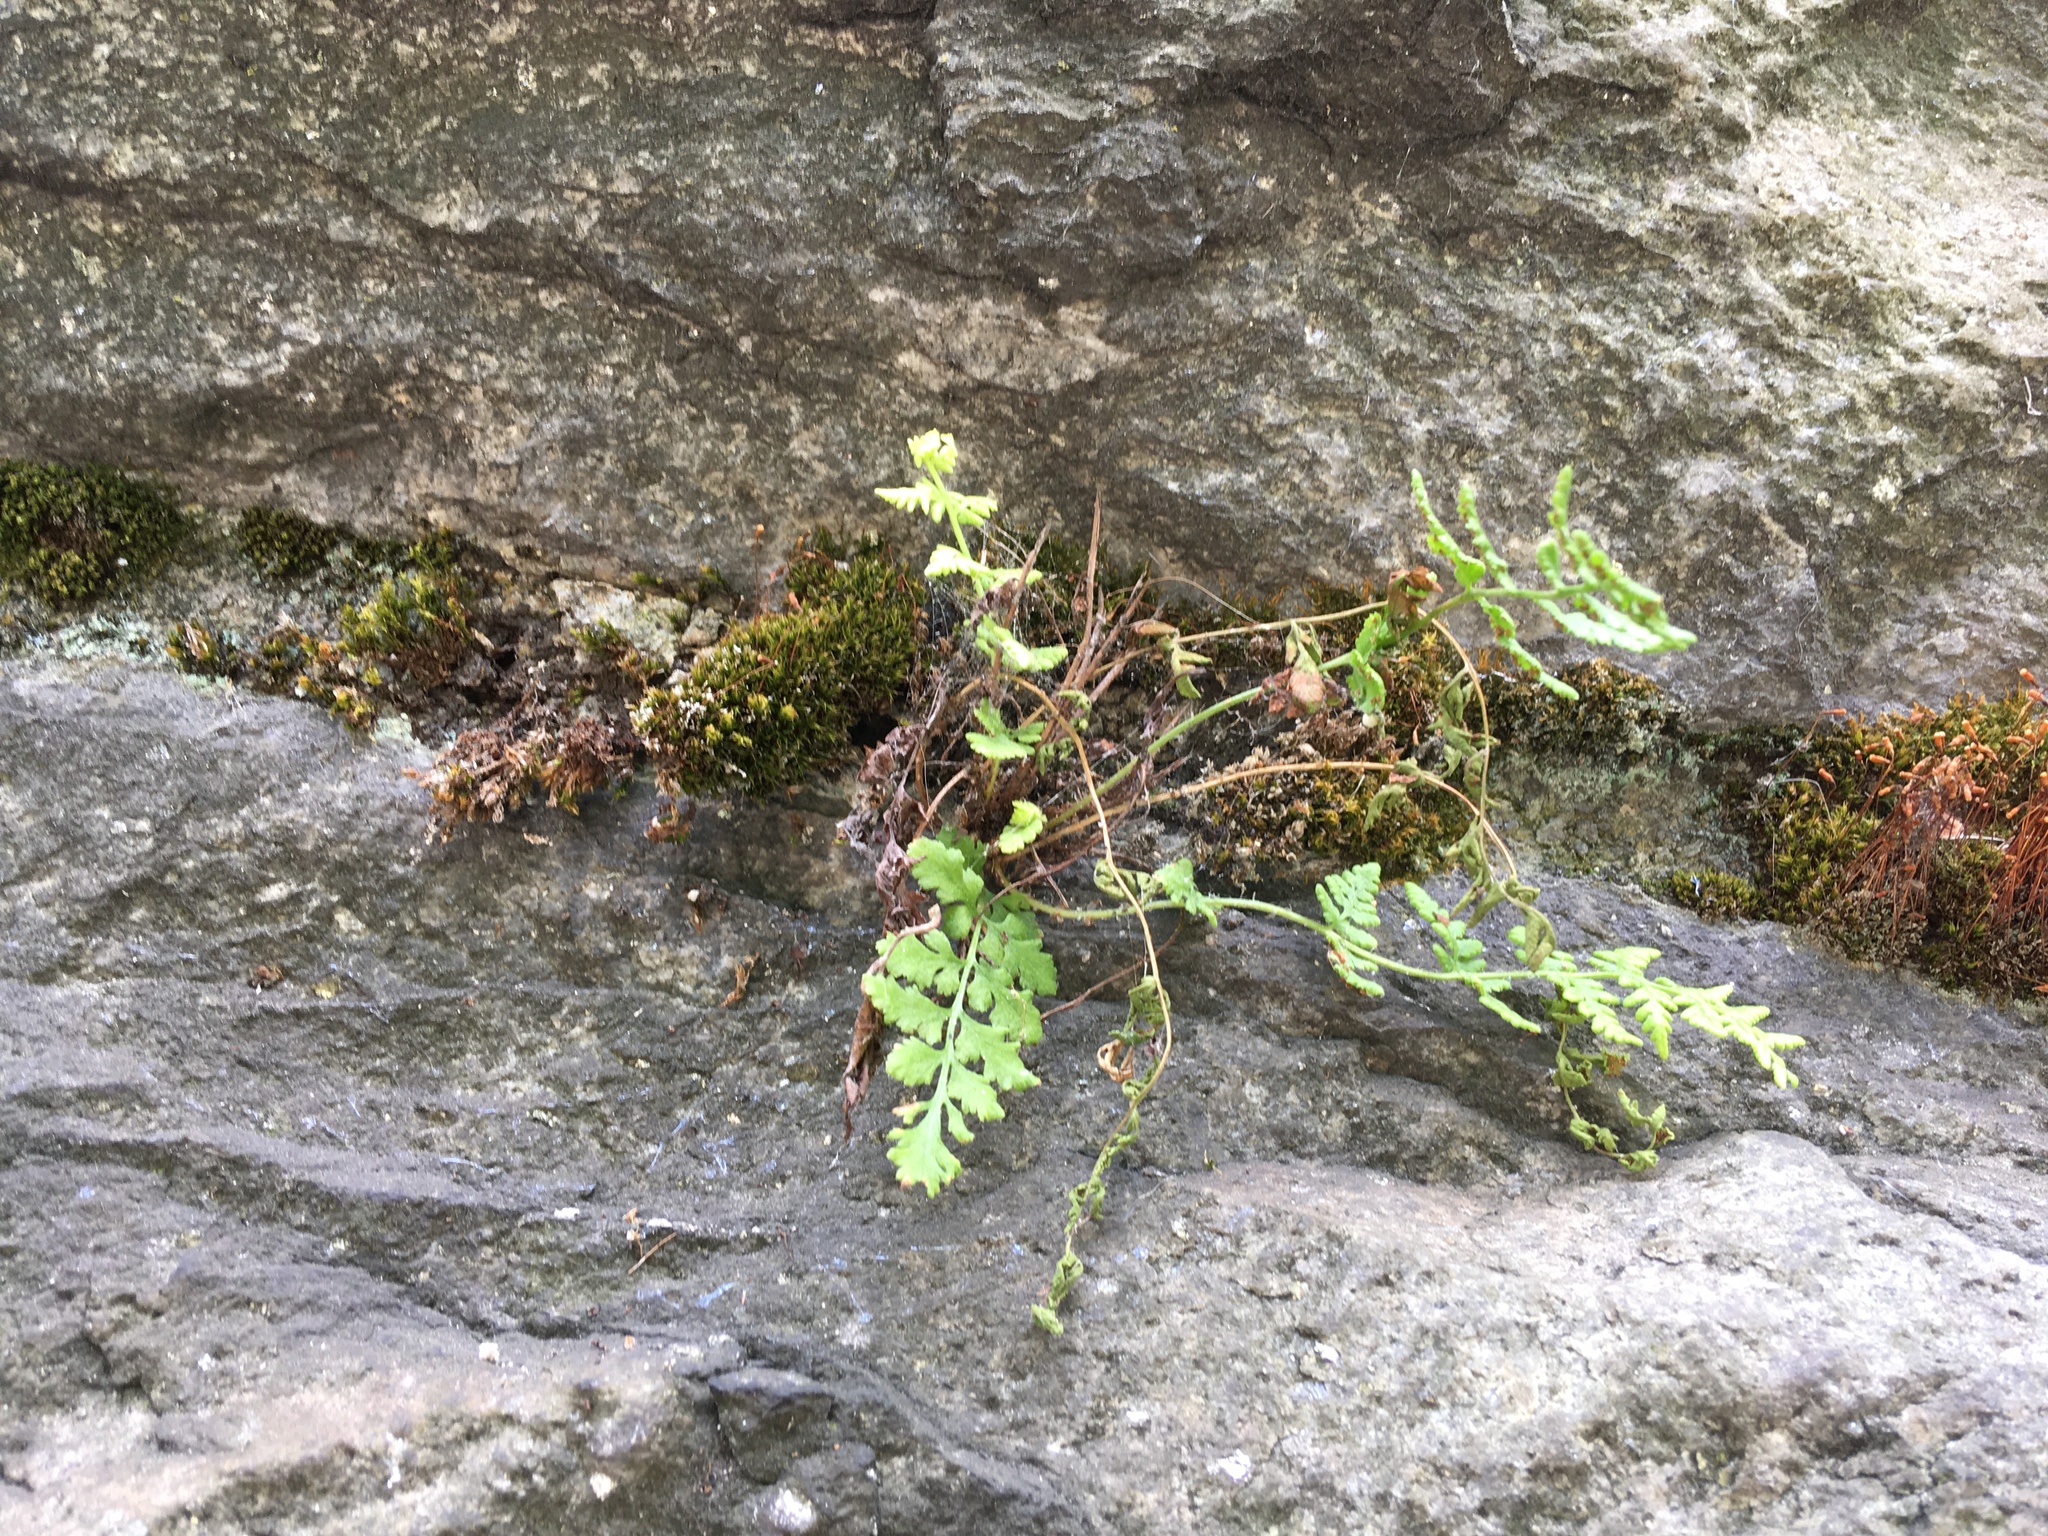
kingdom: Plantae
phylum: Tracheophyta
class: Polypodiopsida
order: Polypodiales
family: Woodsiaceae
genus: Physematium
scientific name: Physematium obtusum
